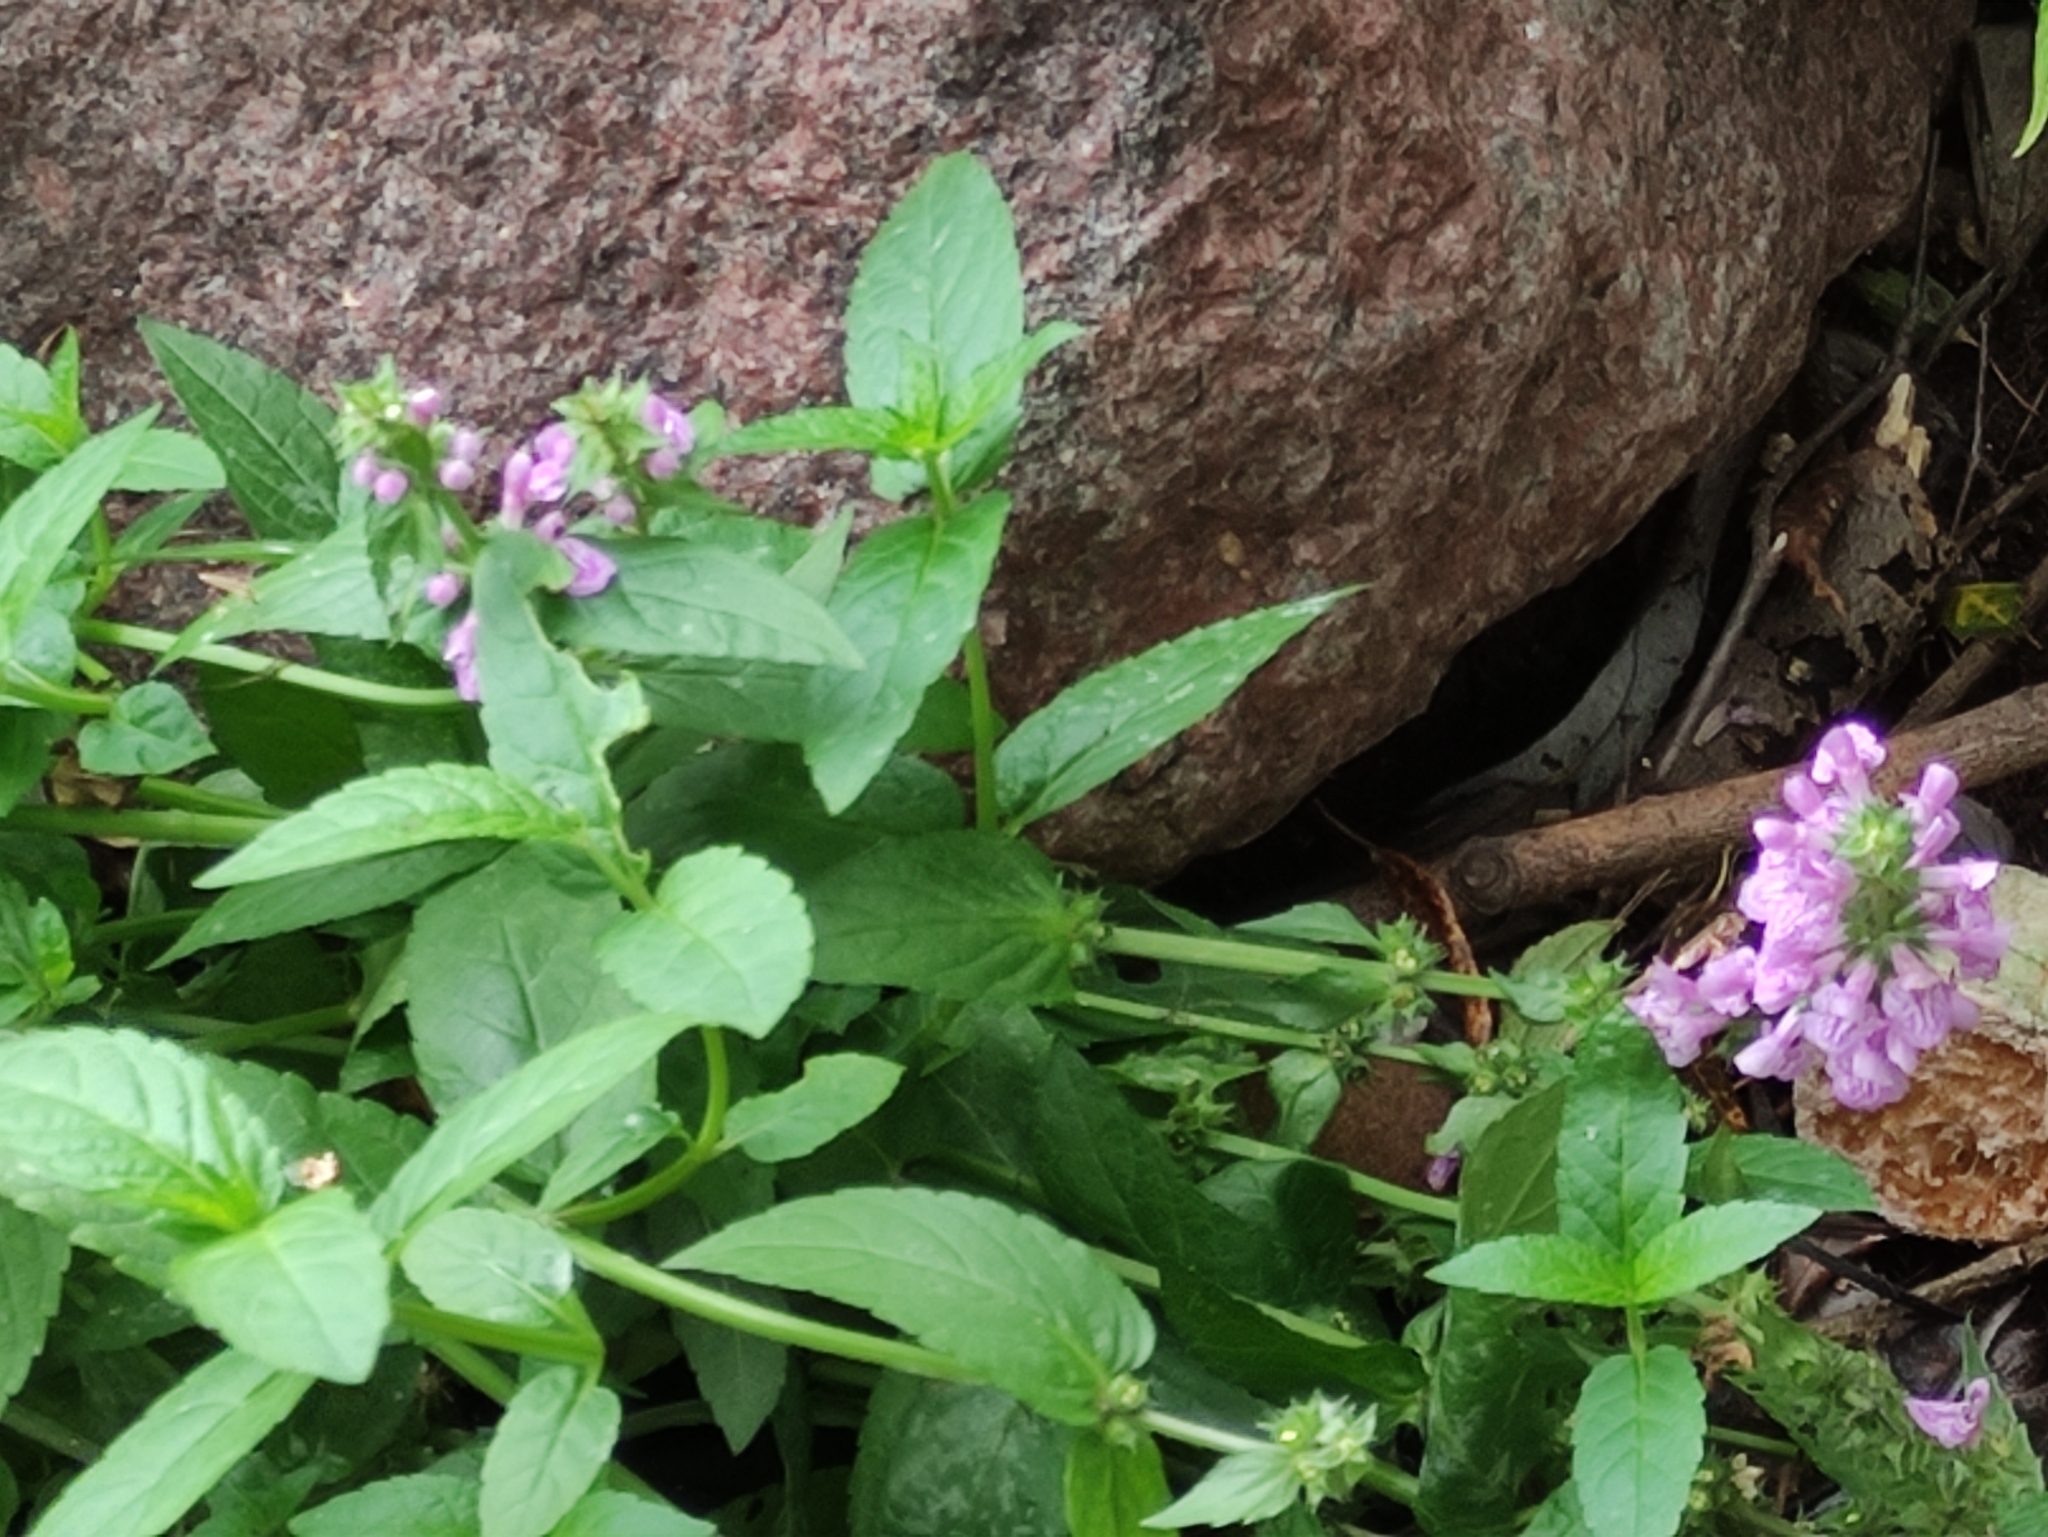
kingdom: Plantae
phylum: Tracheophyta
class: Magnoliopsida
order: Lamiales
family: Lamiaceae
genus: Stachys
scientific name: Stachys palustris
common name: Marsh woundwort
